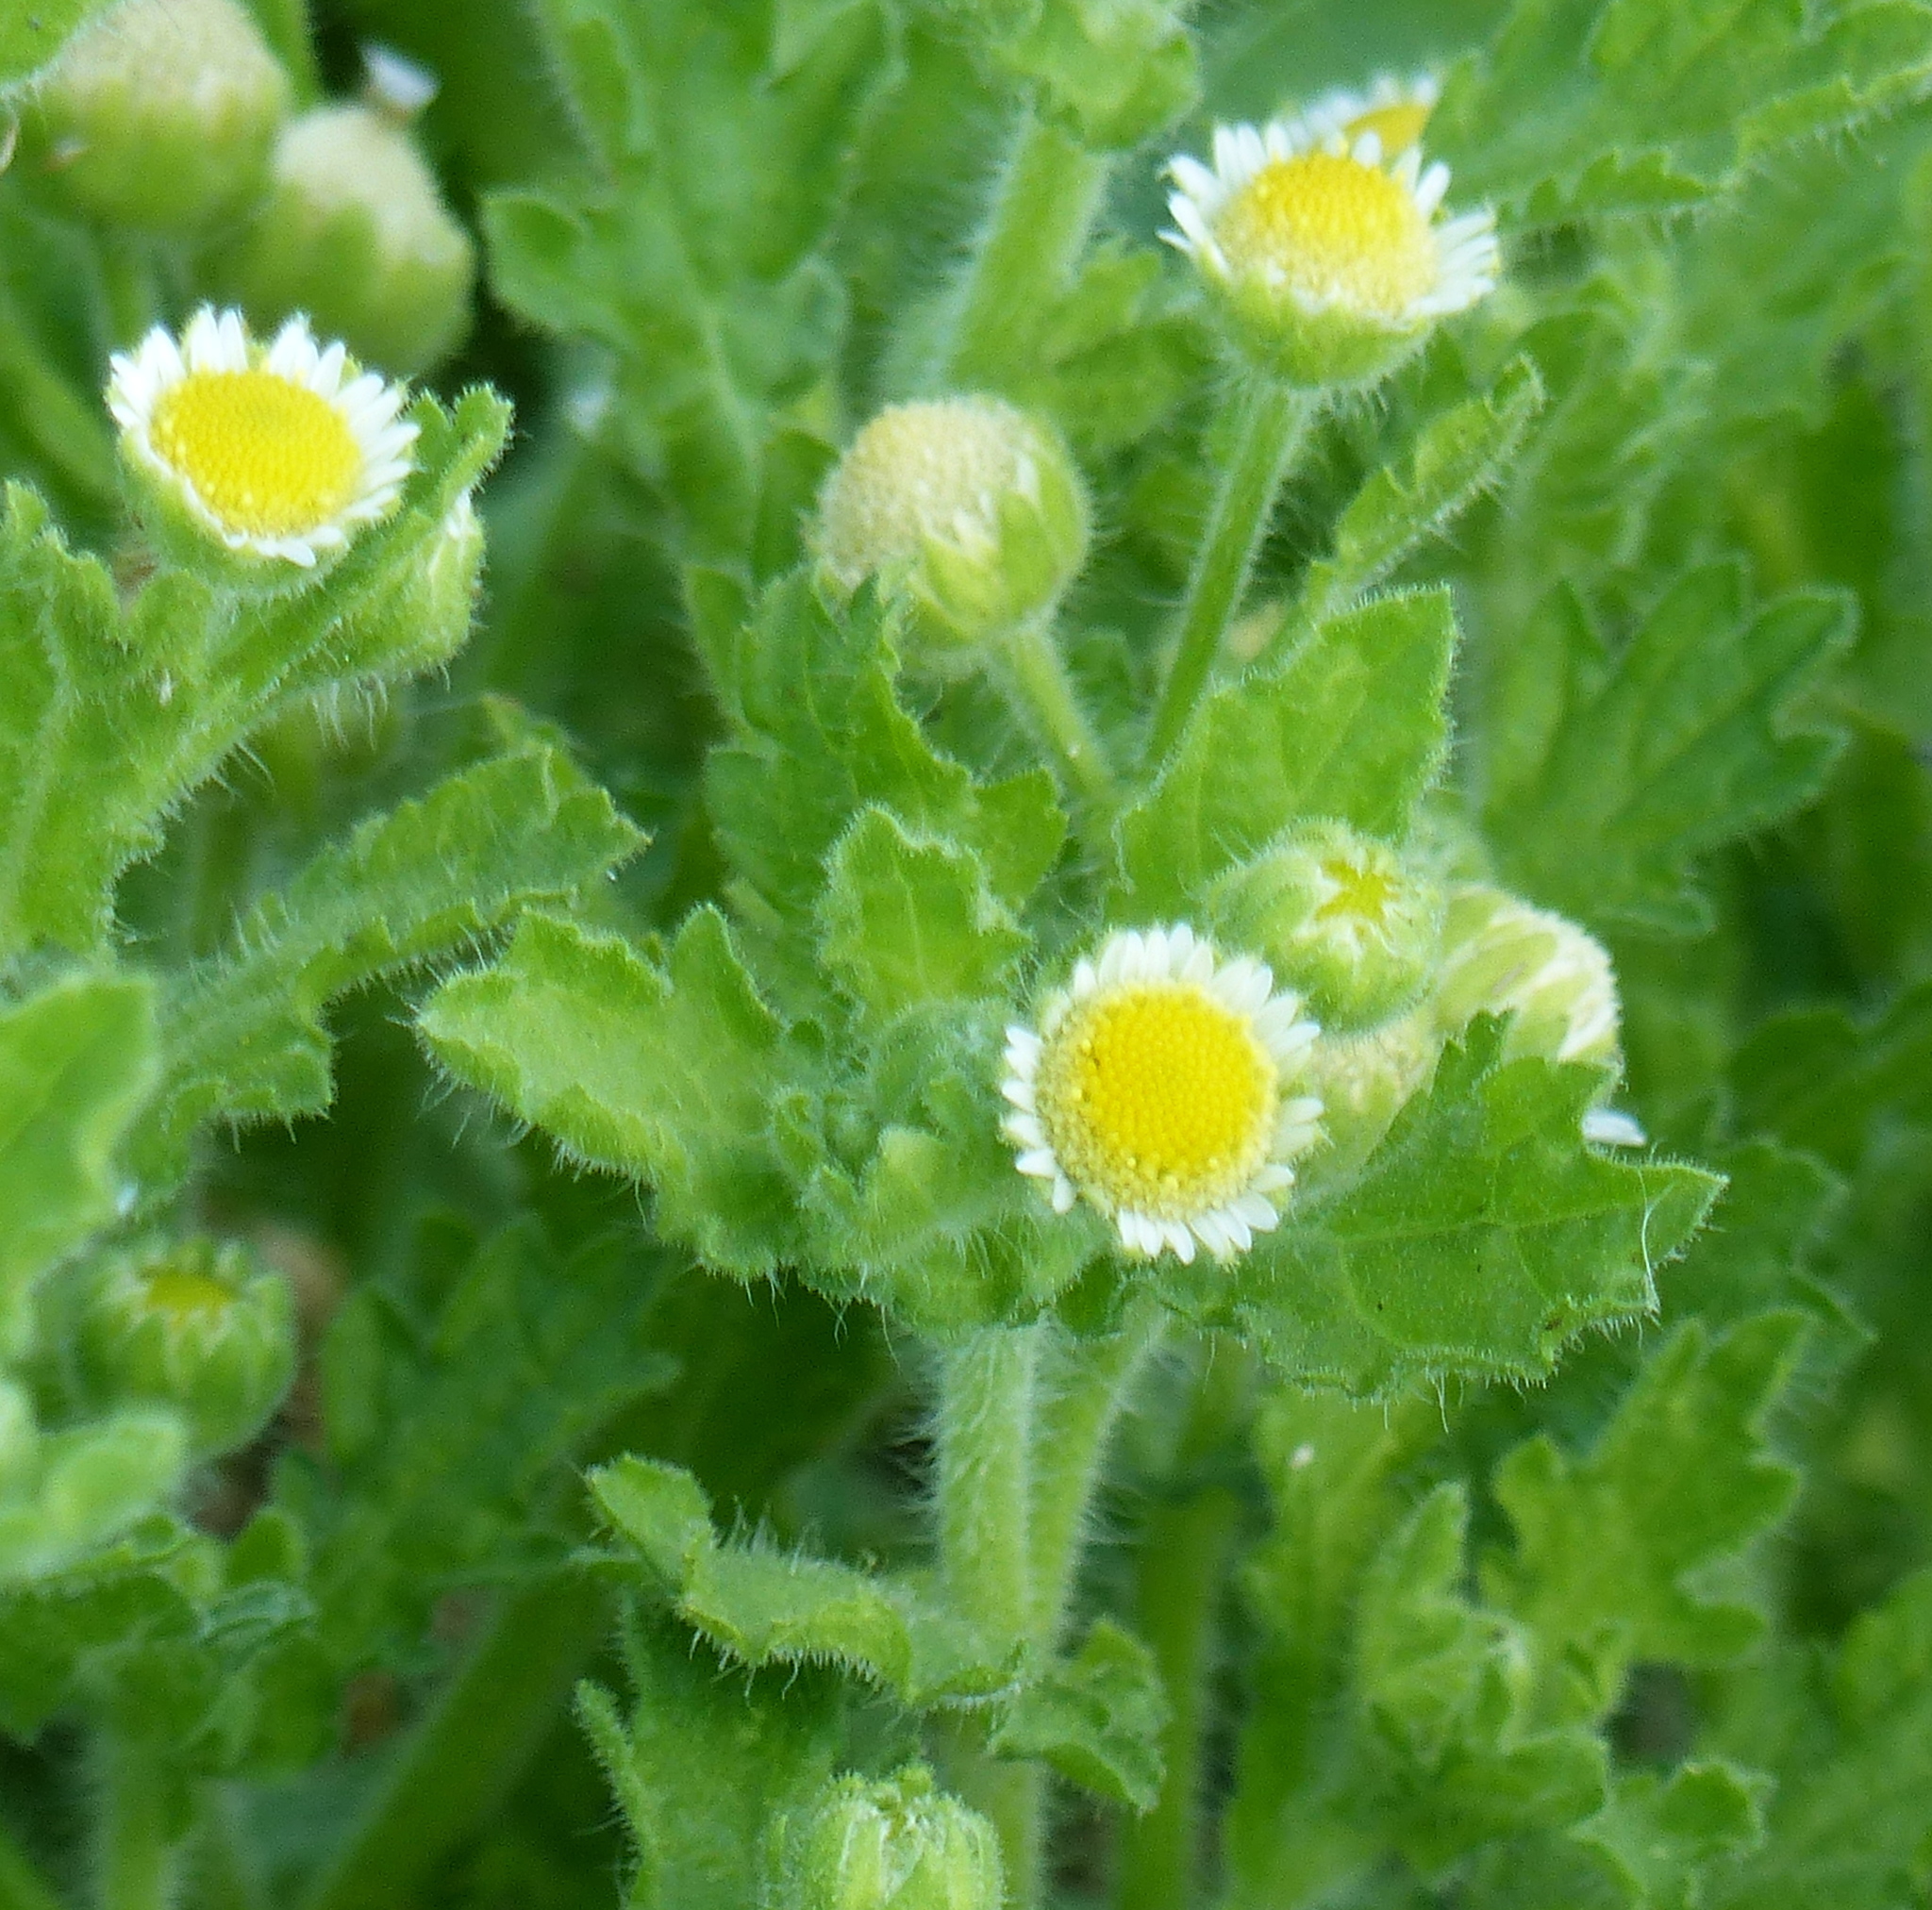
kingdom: Plantae
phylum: Tracheophyta
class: Magnoliopsida
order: Asterales
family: Asteraceae
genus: Egletes
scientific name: Egletes viscosa
